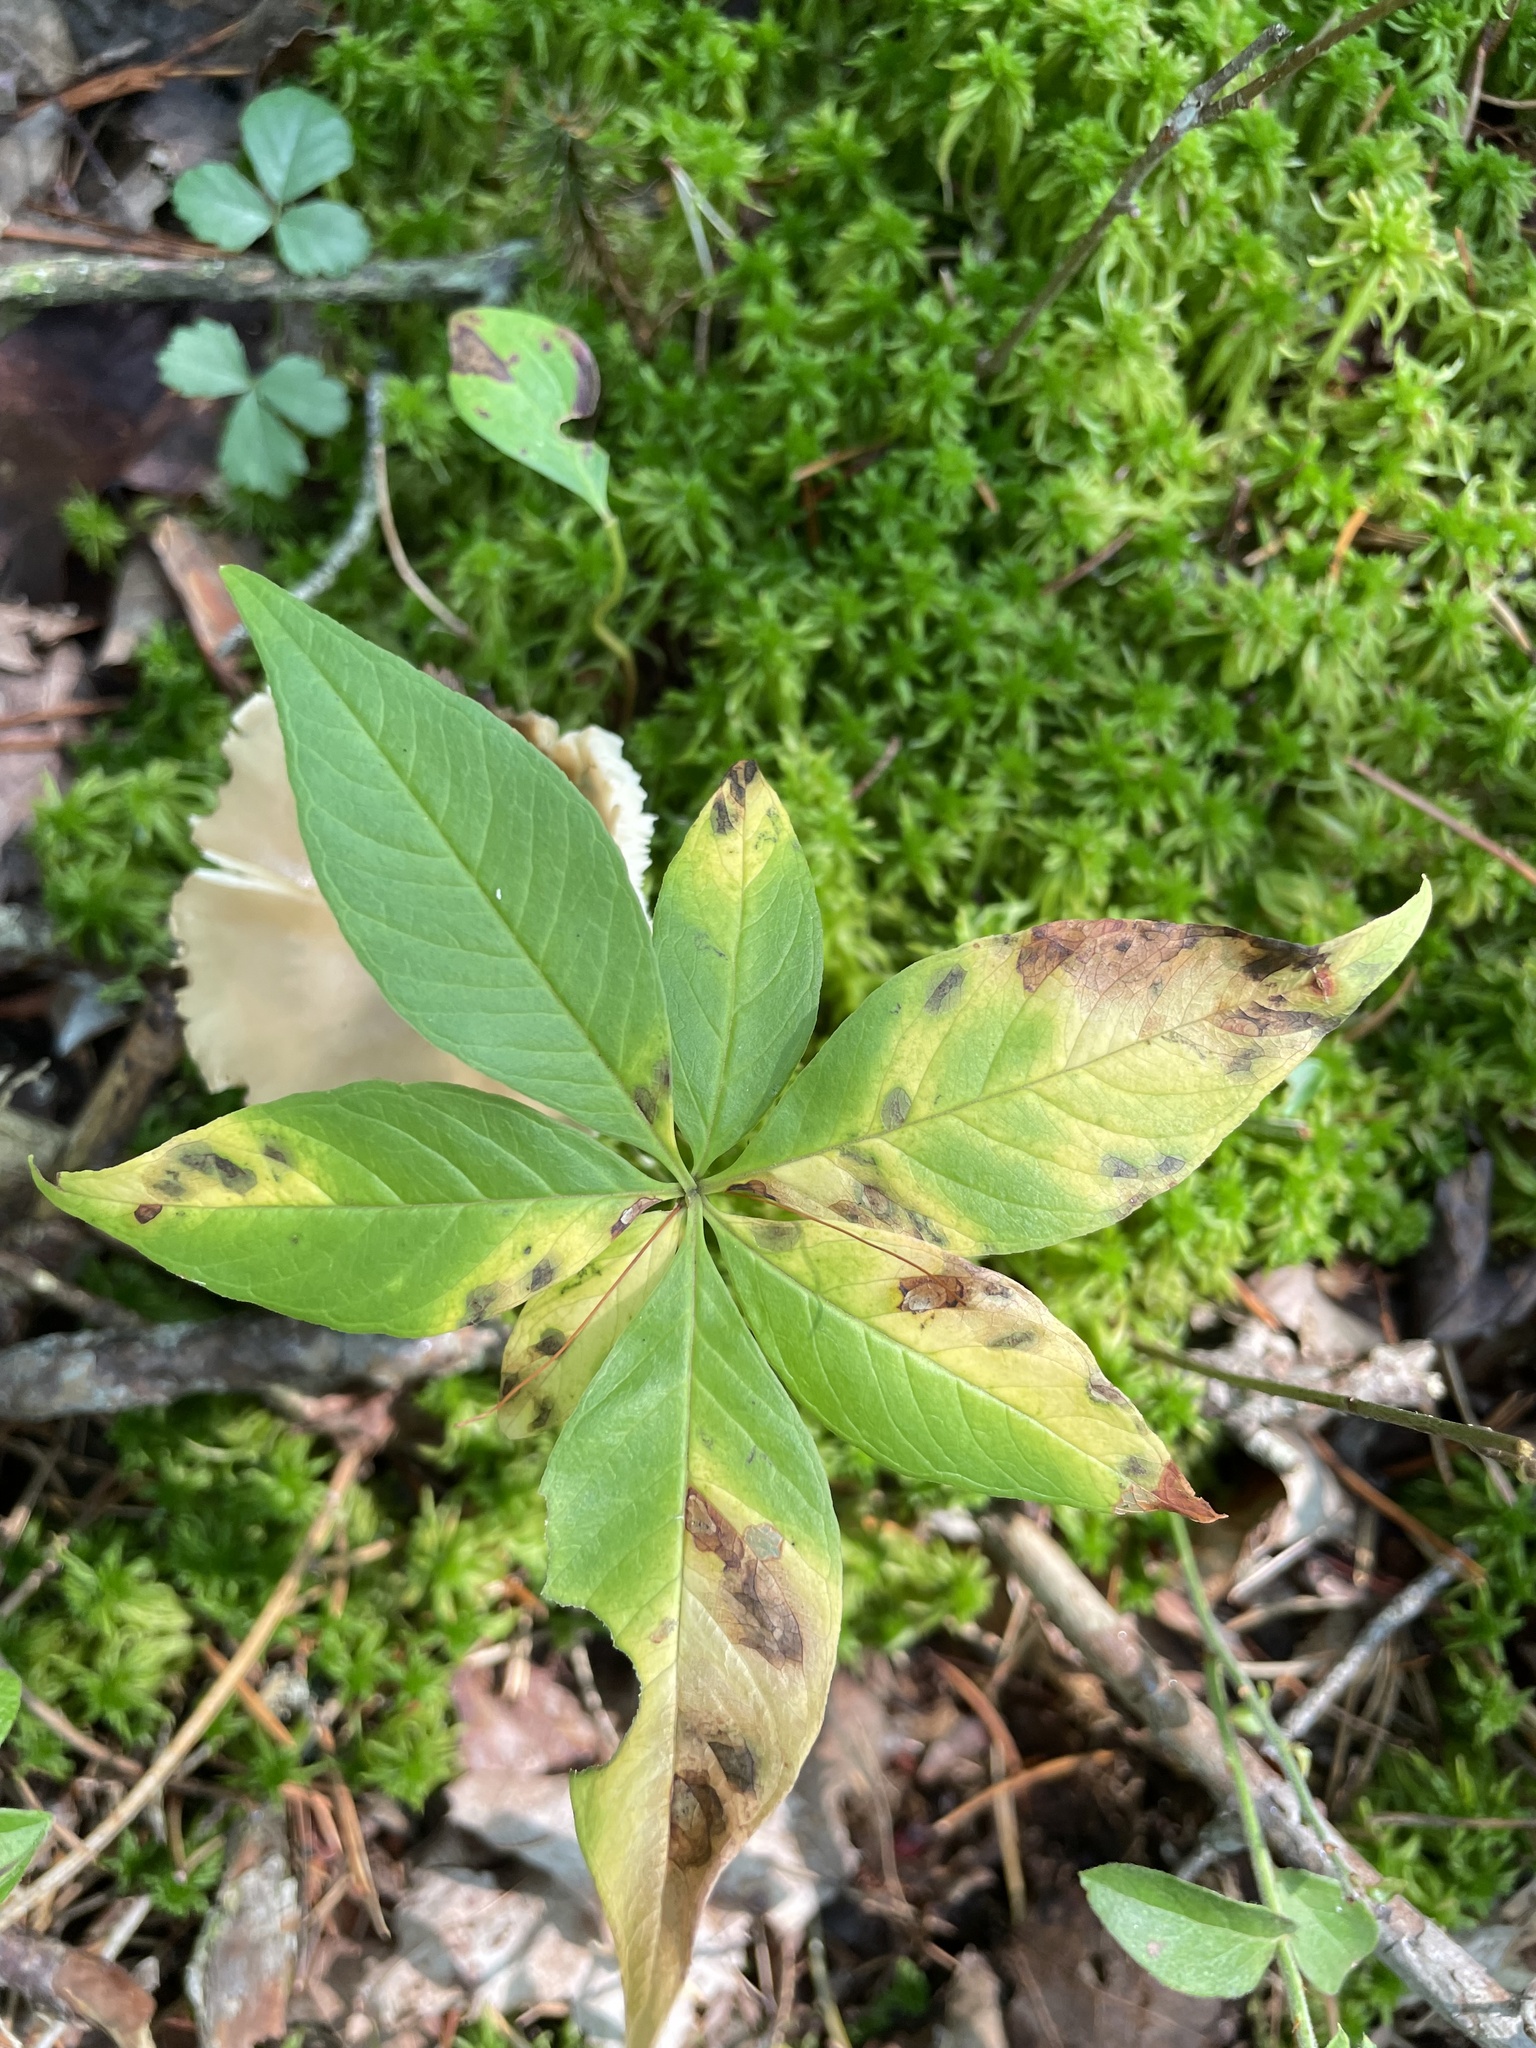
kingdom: Plantae
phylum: Tracheophyta
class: Magnoliopsida
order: Ericales
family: Primulaceae
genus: Lysimachia
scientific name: Lysimachia borealis
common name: American starflower
